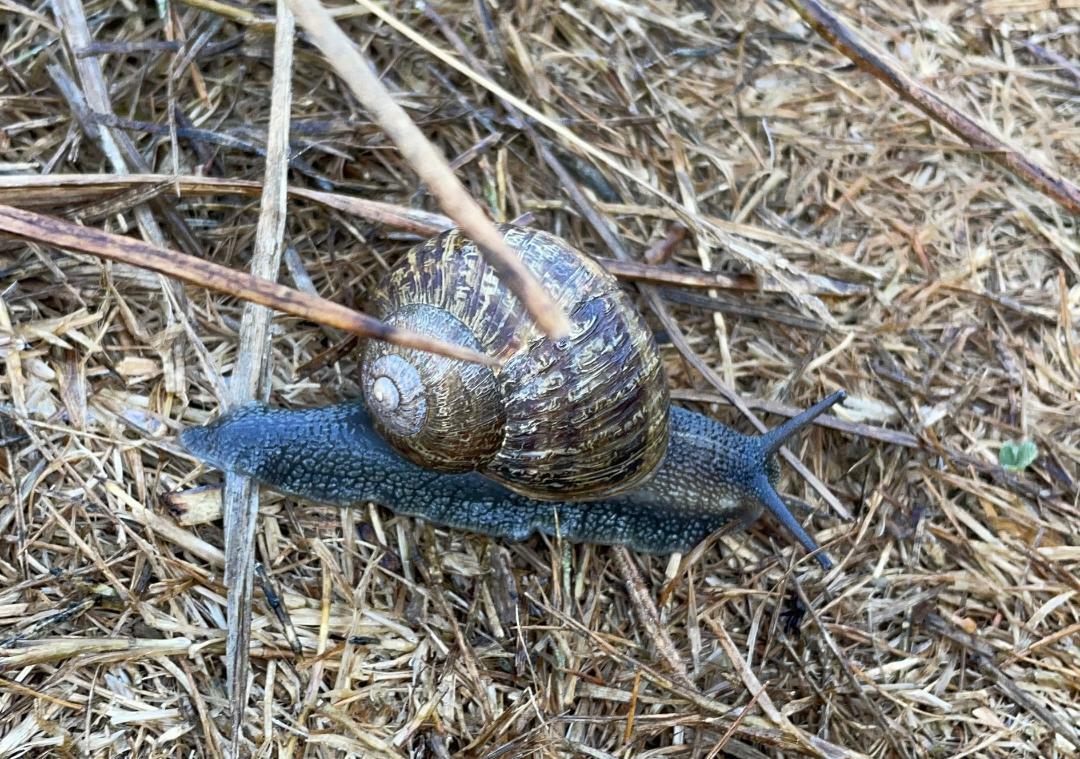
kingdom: Animalia
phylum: Mollusca
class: Gastropoda
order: Stylommatophora
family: Helicidae
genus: Cornu
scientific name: Cornu aspersum
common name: Brown garden snail
